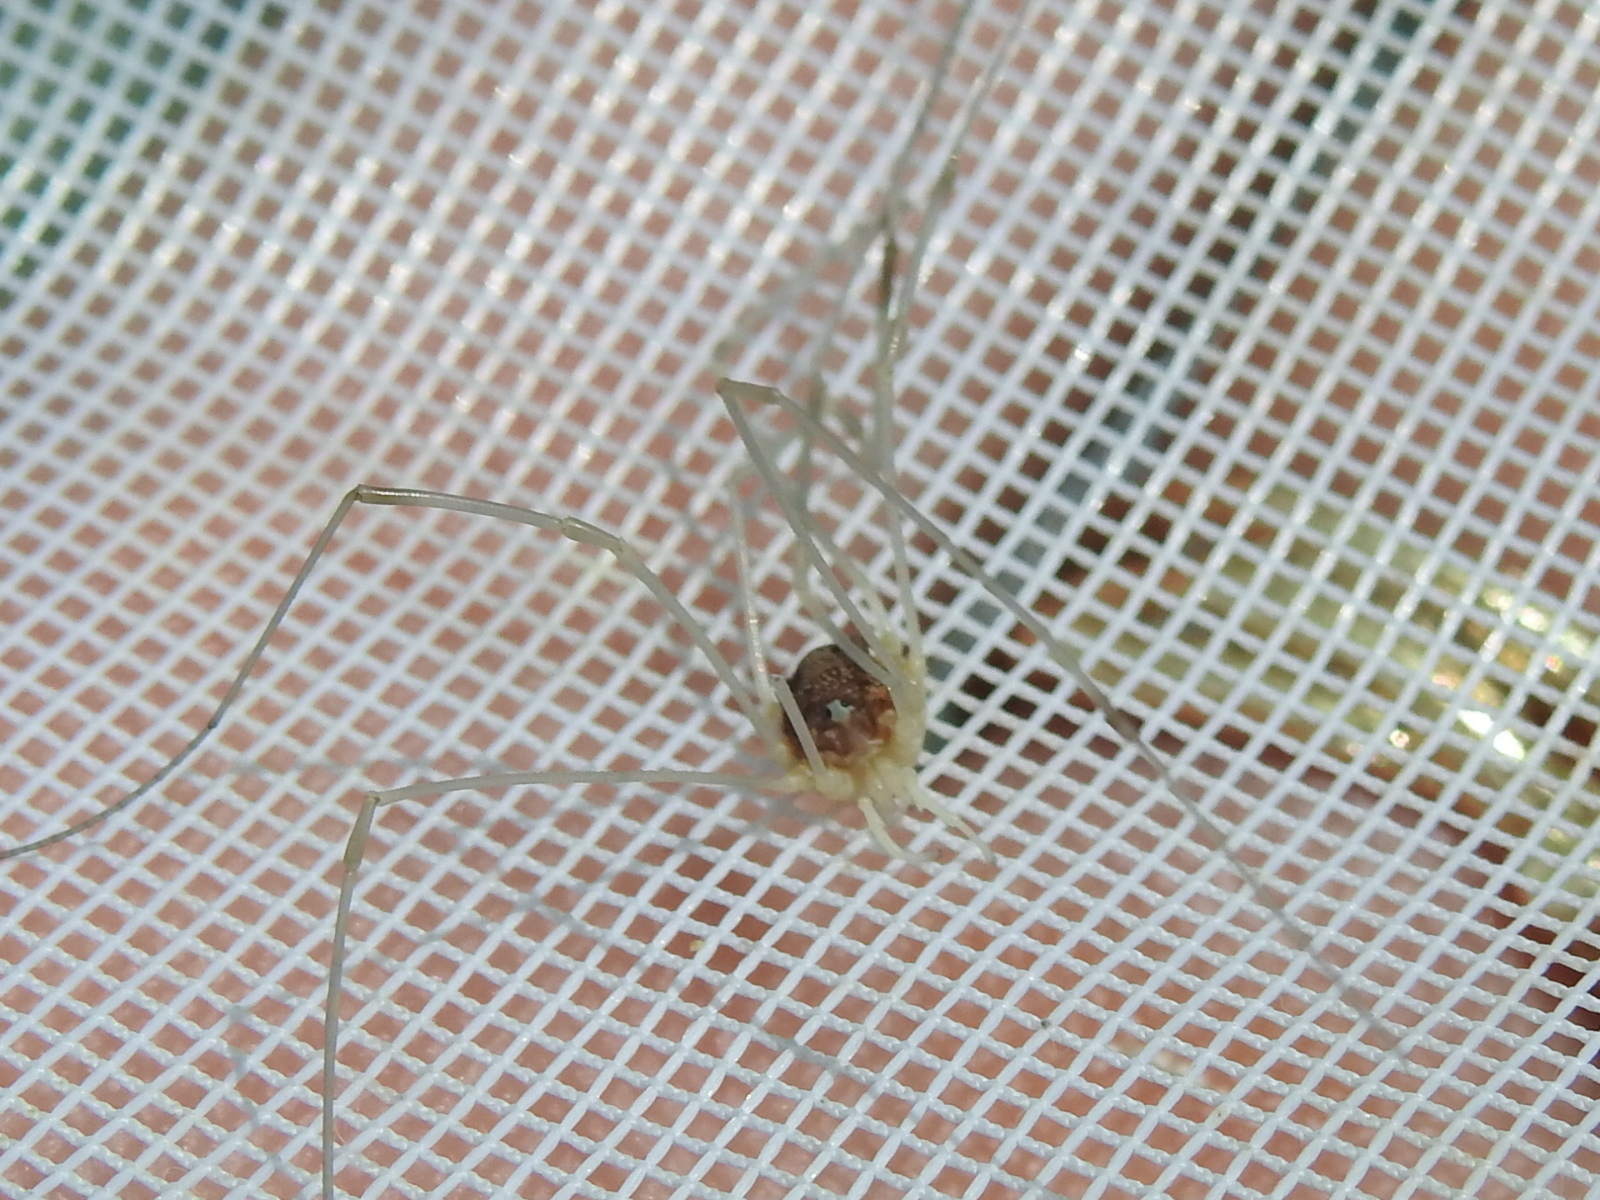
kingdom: Animalia
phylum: Arthropoda
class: Arachnida
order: Opiliones
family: Sclerosomatidae
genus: Leiobunum
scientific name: Leiobunum vittatum
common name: Eastern harvestman
